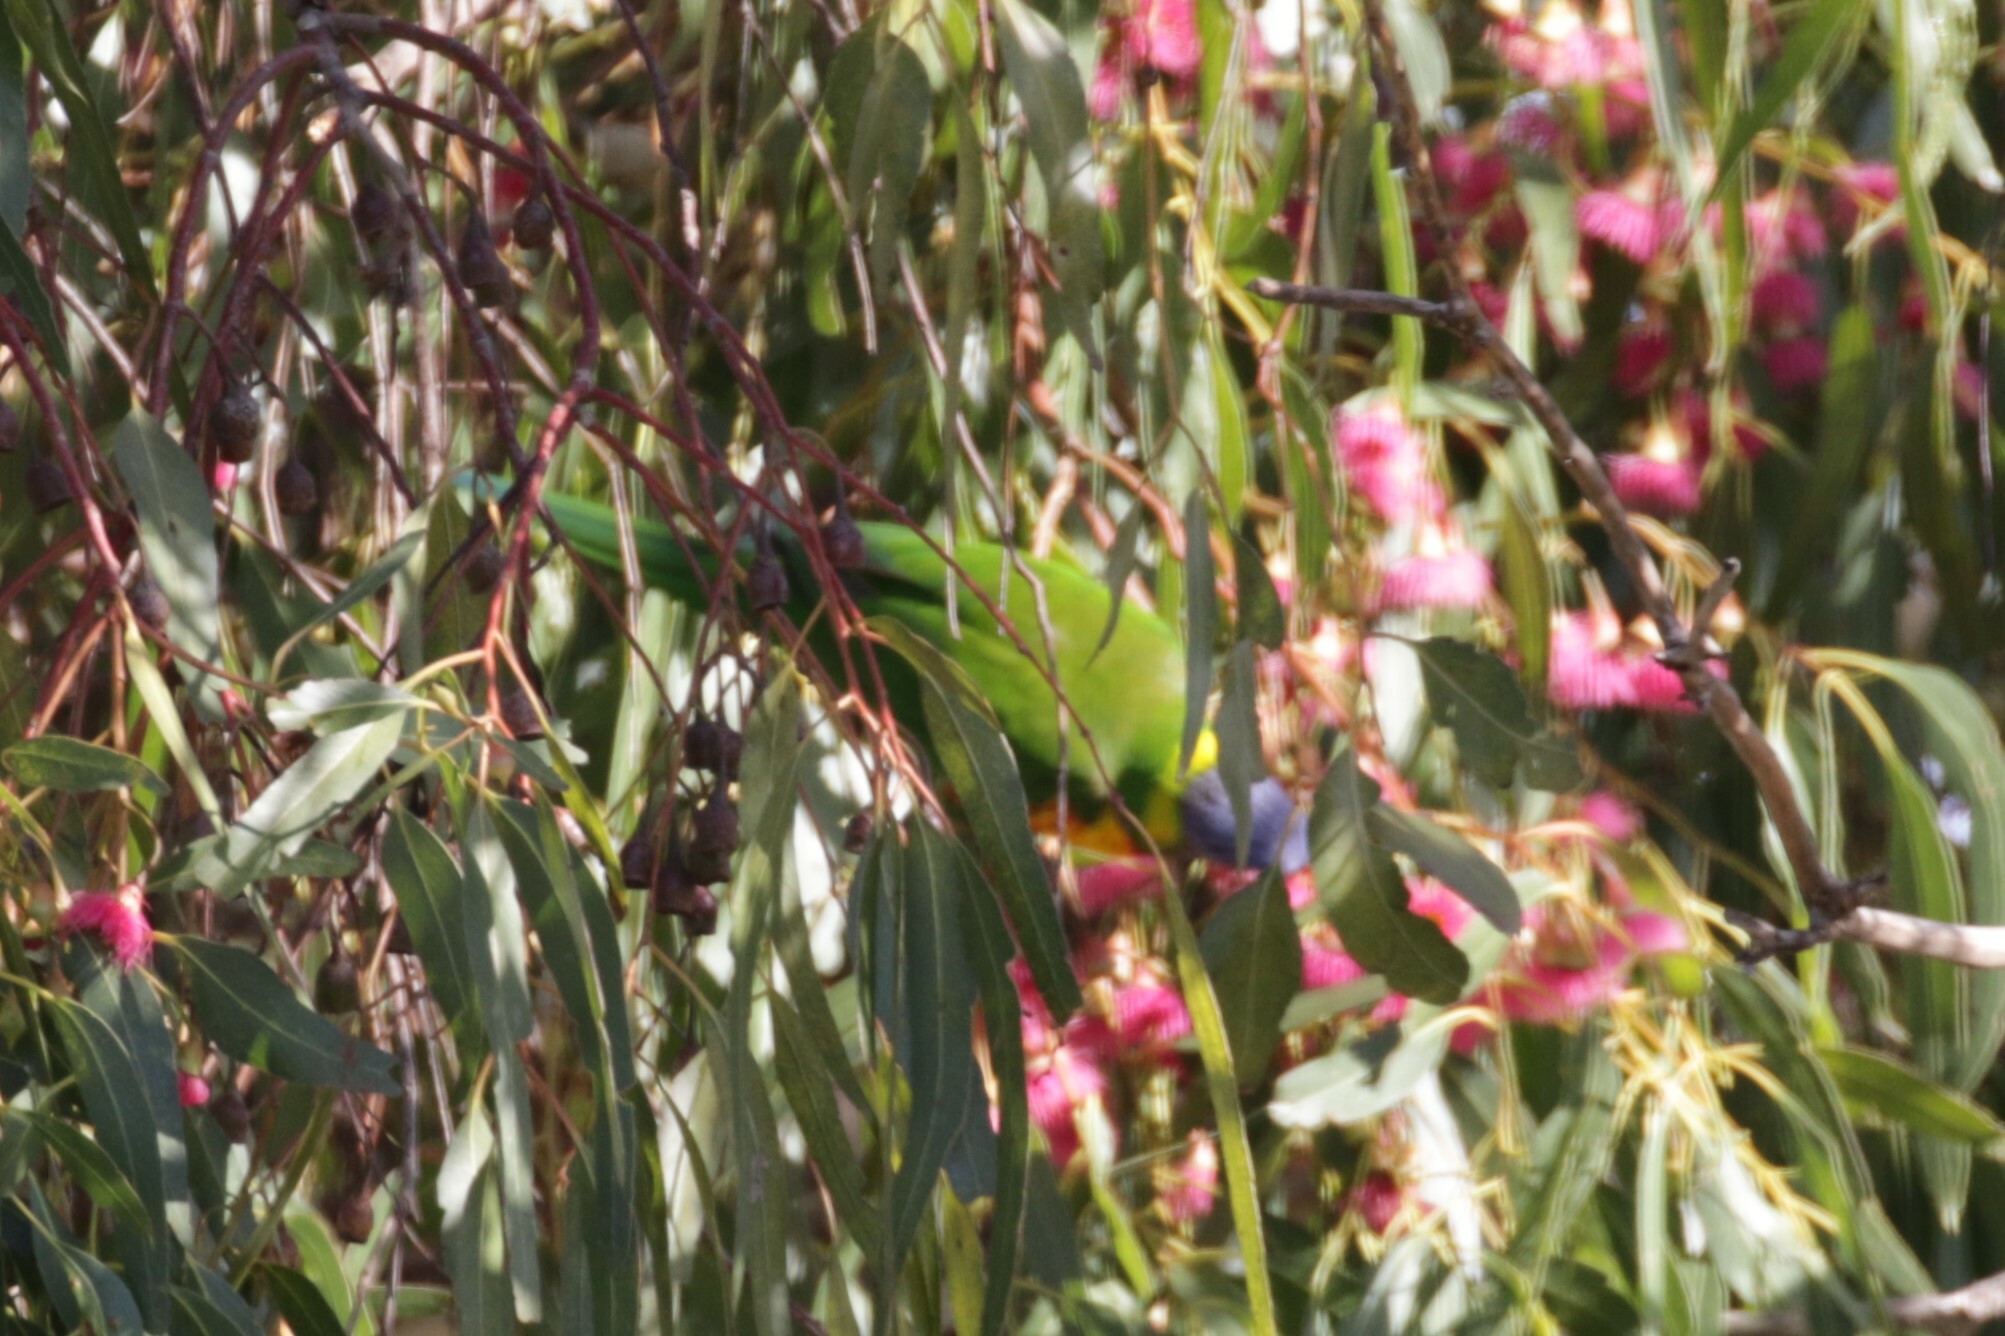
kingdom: Animalia
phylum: Chordata
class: Aves
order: Psittaciformes
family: Psittacidae
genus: Trichoglossus
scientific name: Trichoglossus haematodus
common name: Coconut lorikeet
